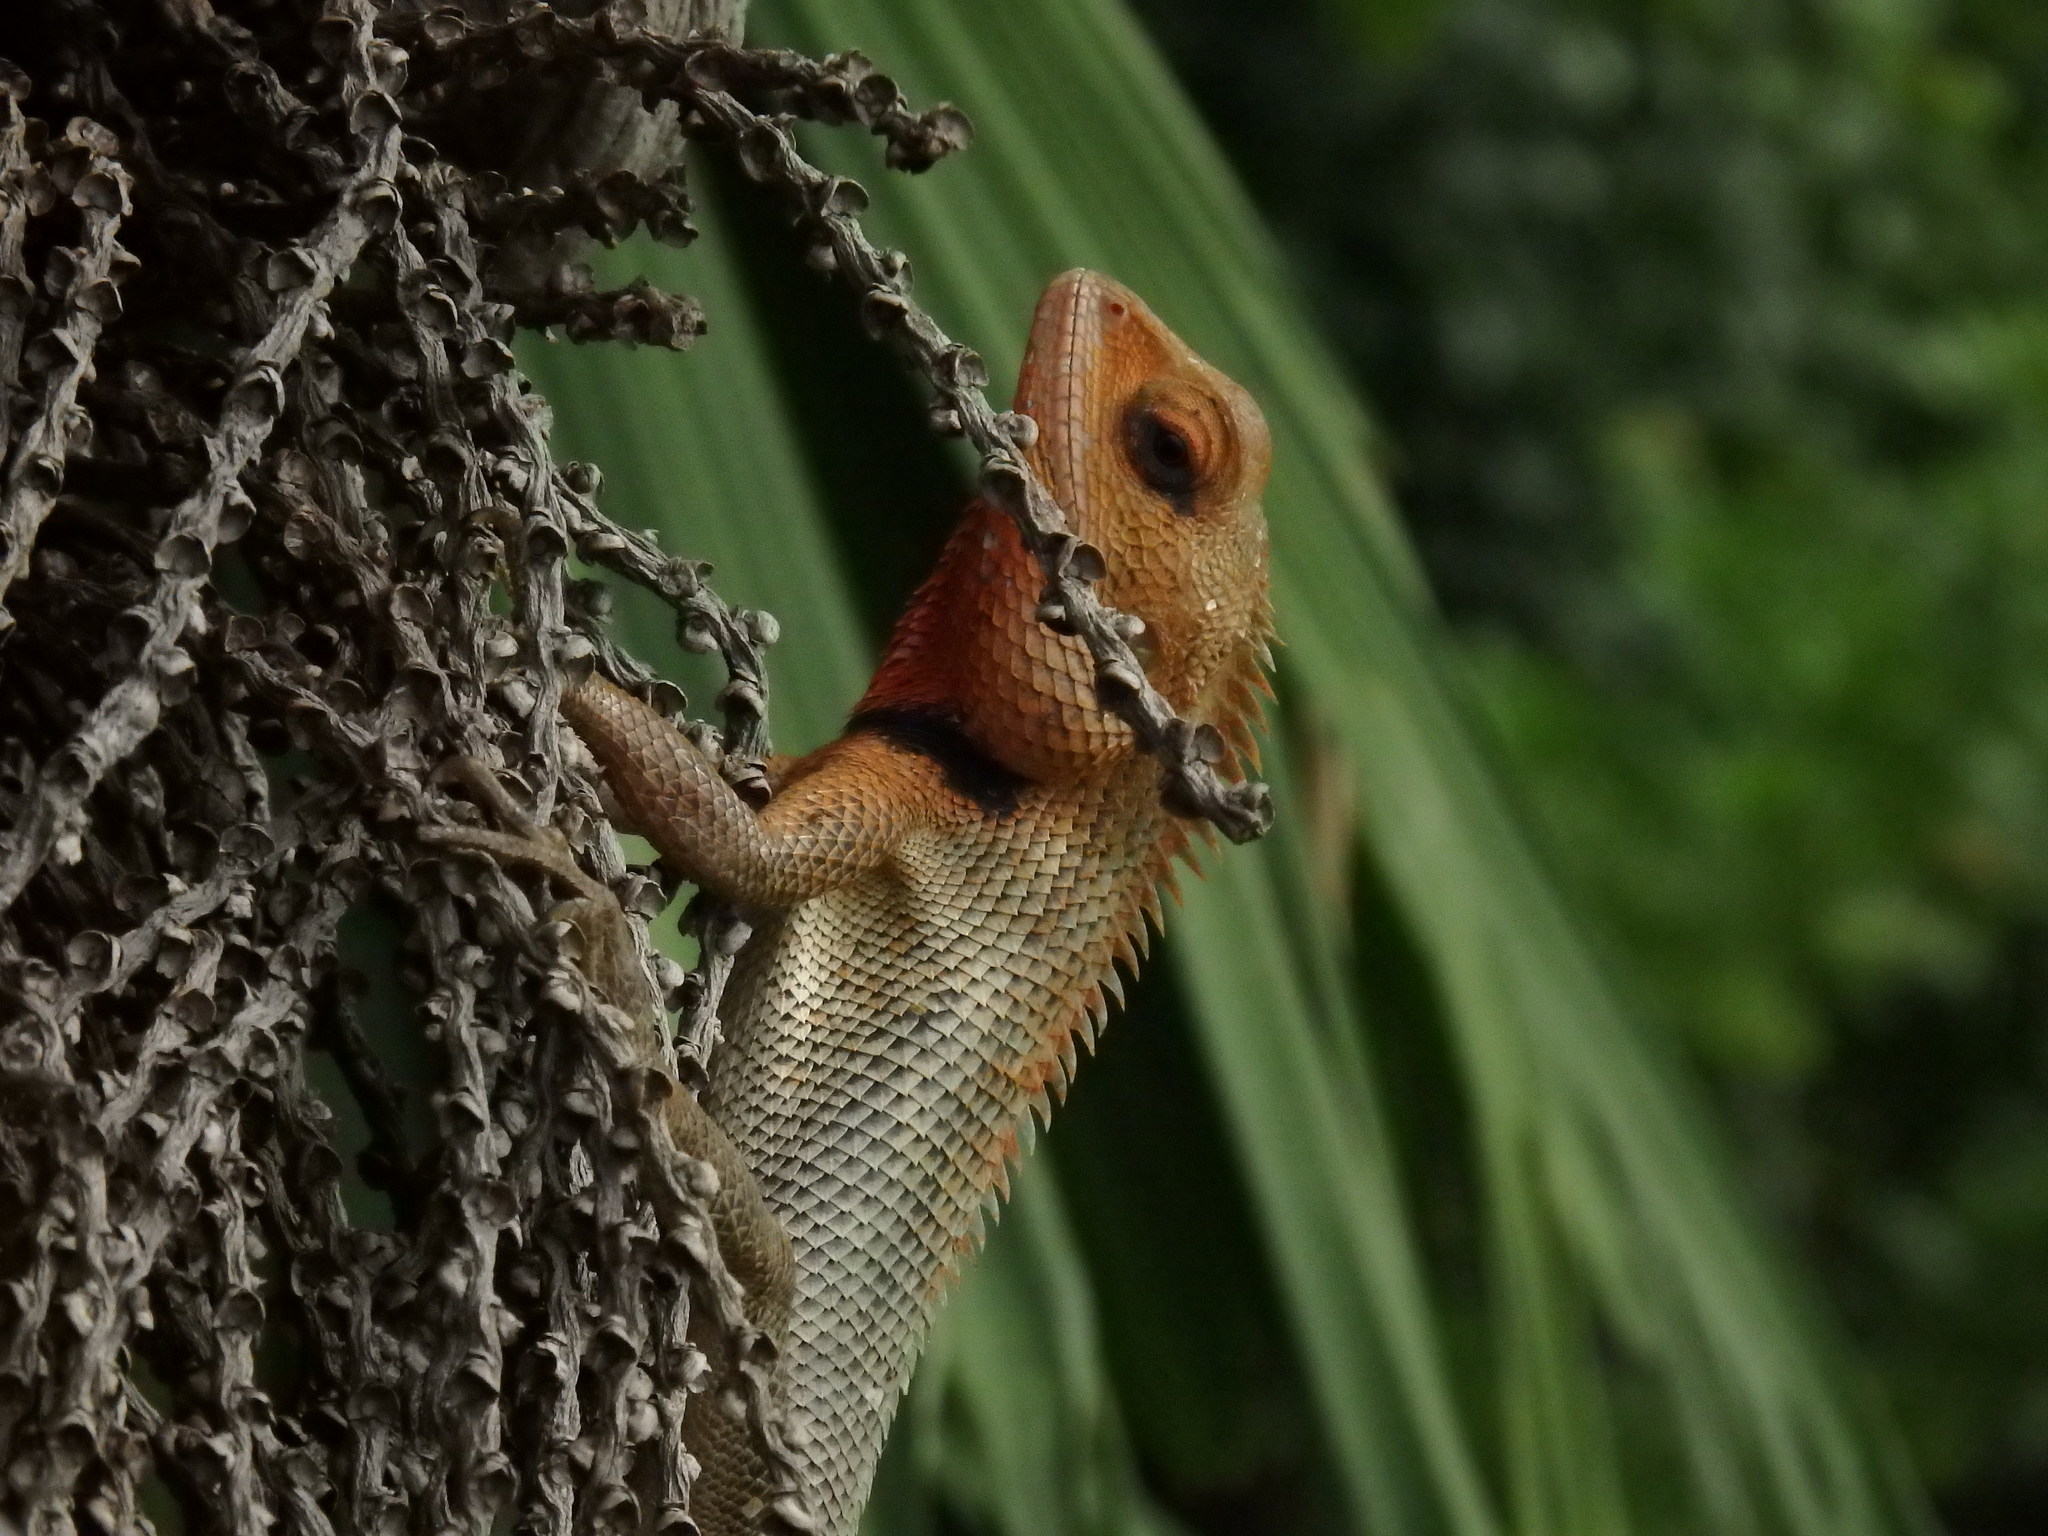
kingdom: Animalia
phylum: Chordata
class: Squamata
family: Agamidae
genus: Calotes
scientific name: Calotes versicolor
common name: Oriental garden lizard
